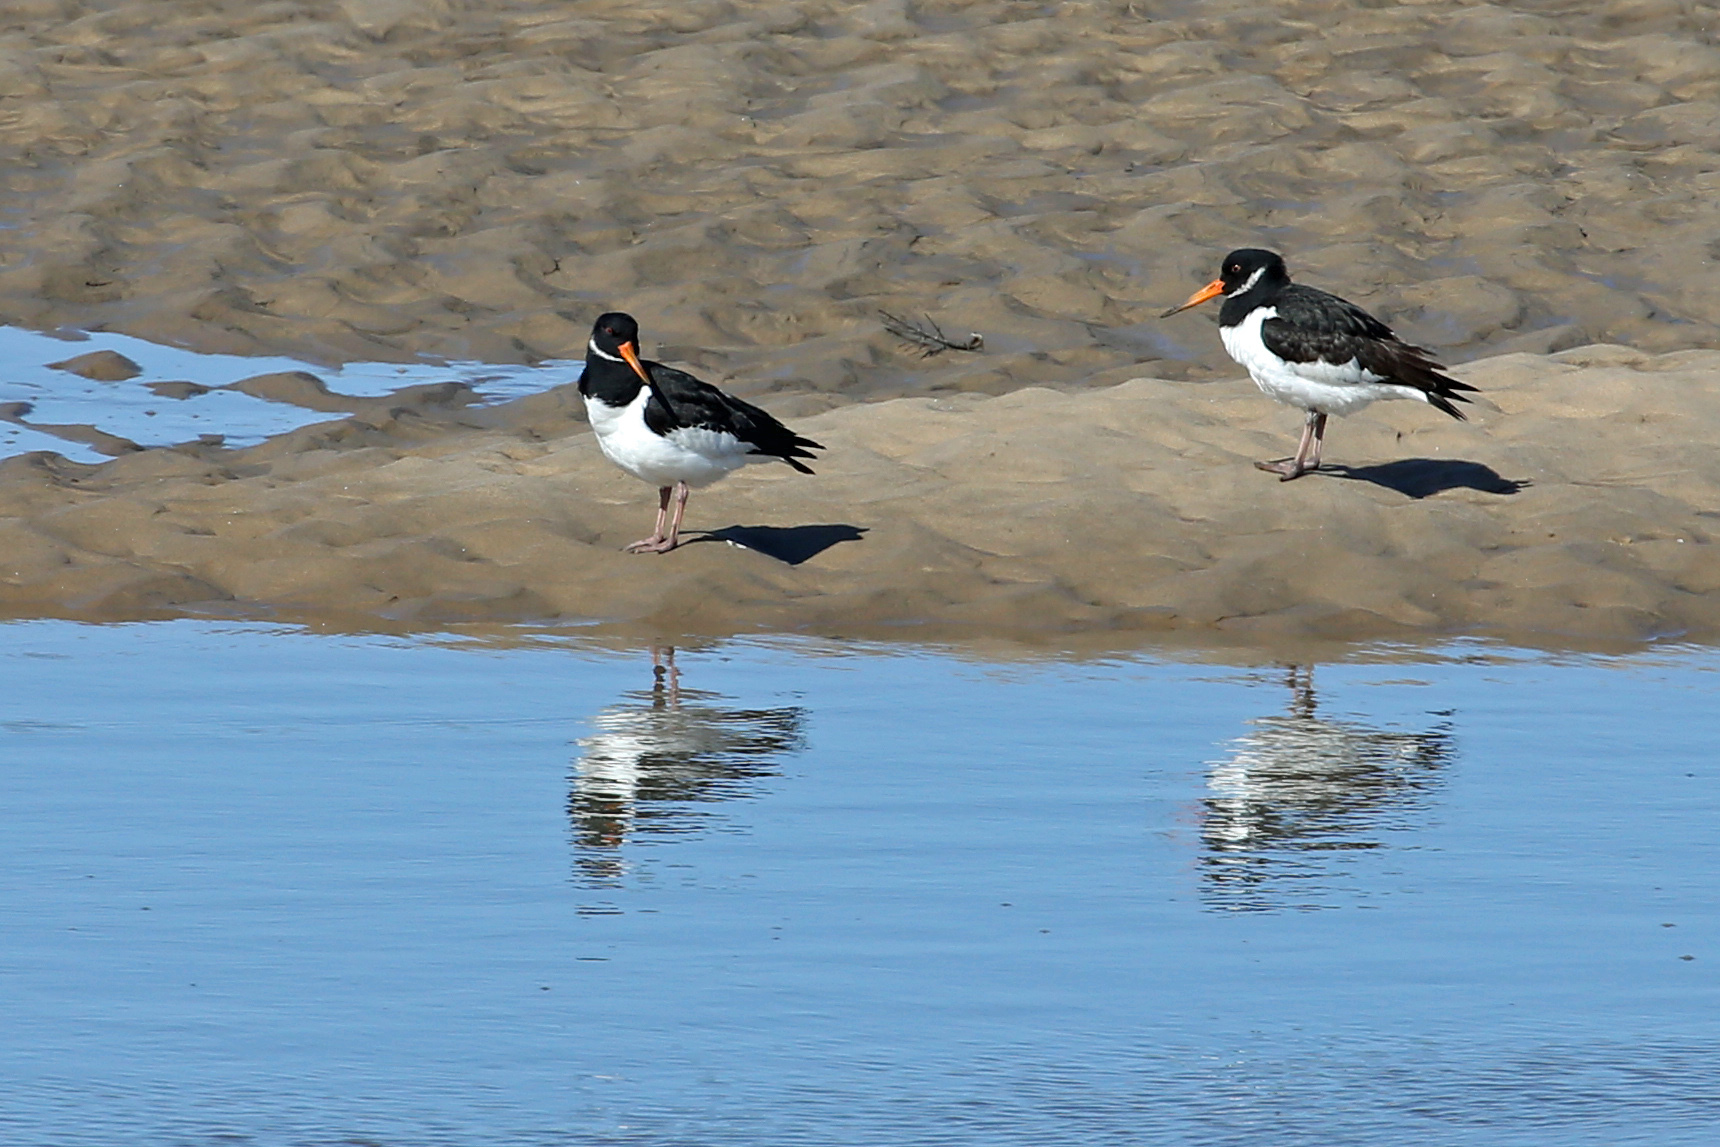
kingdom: Animalia
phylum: Chordata
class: Aves
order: Charadriiformes
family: Haematopodidae
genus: Haematopus
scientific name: Haematopus ostralegus
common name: Eurasian oystercatcher
